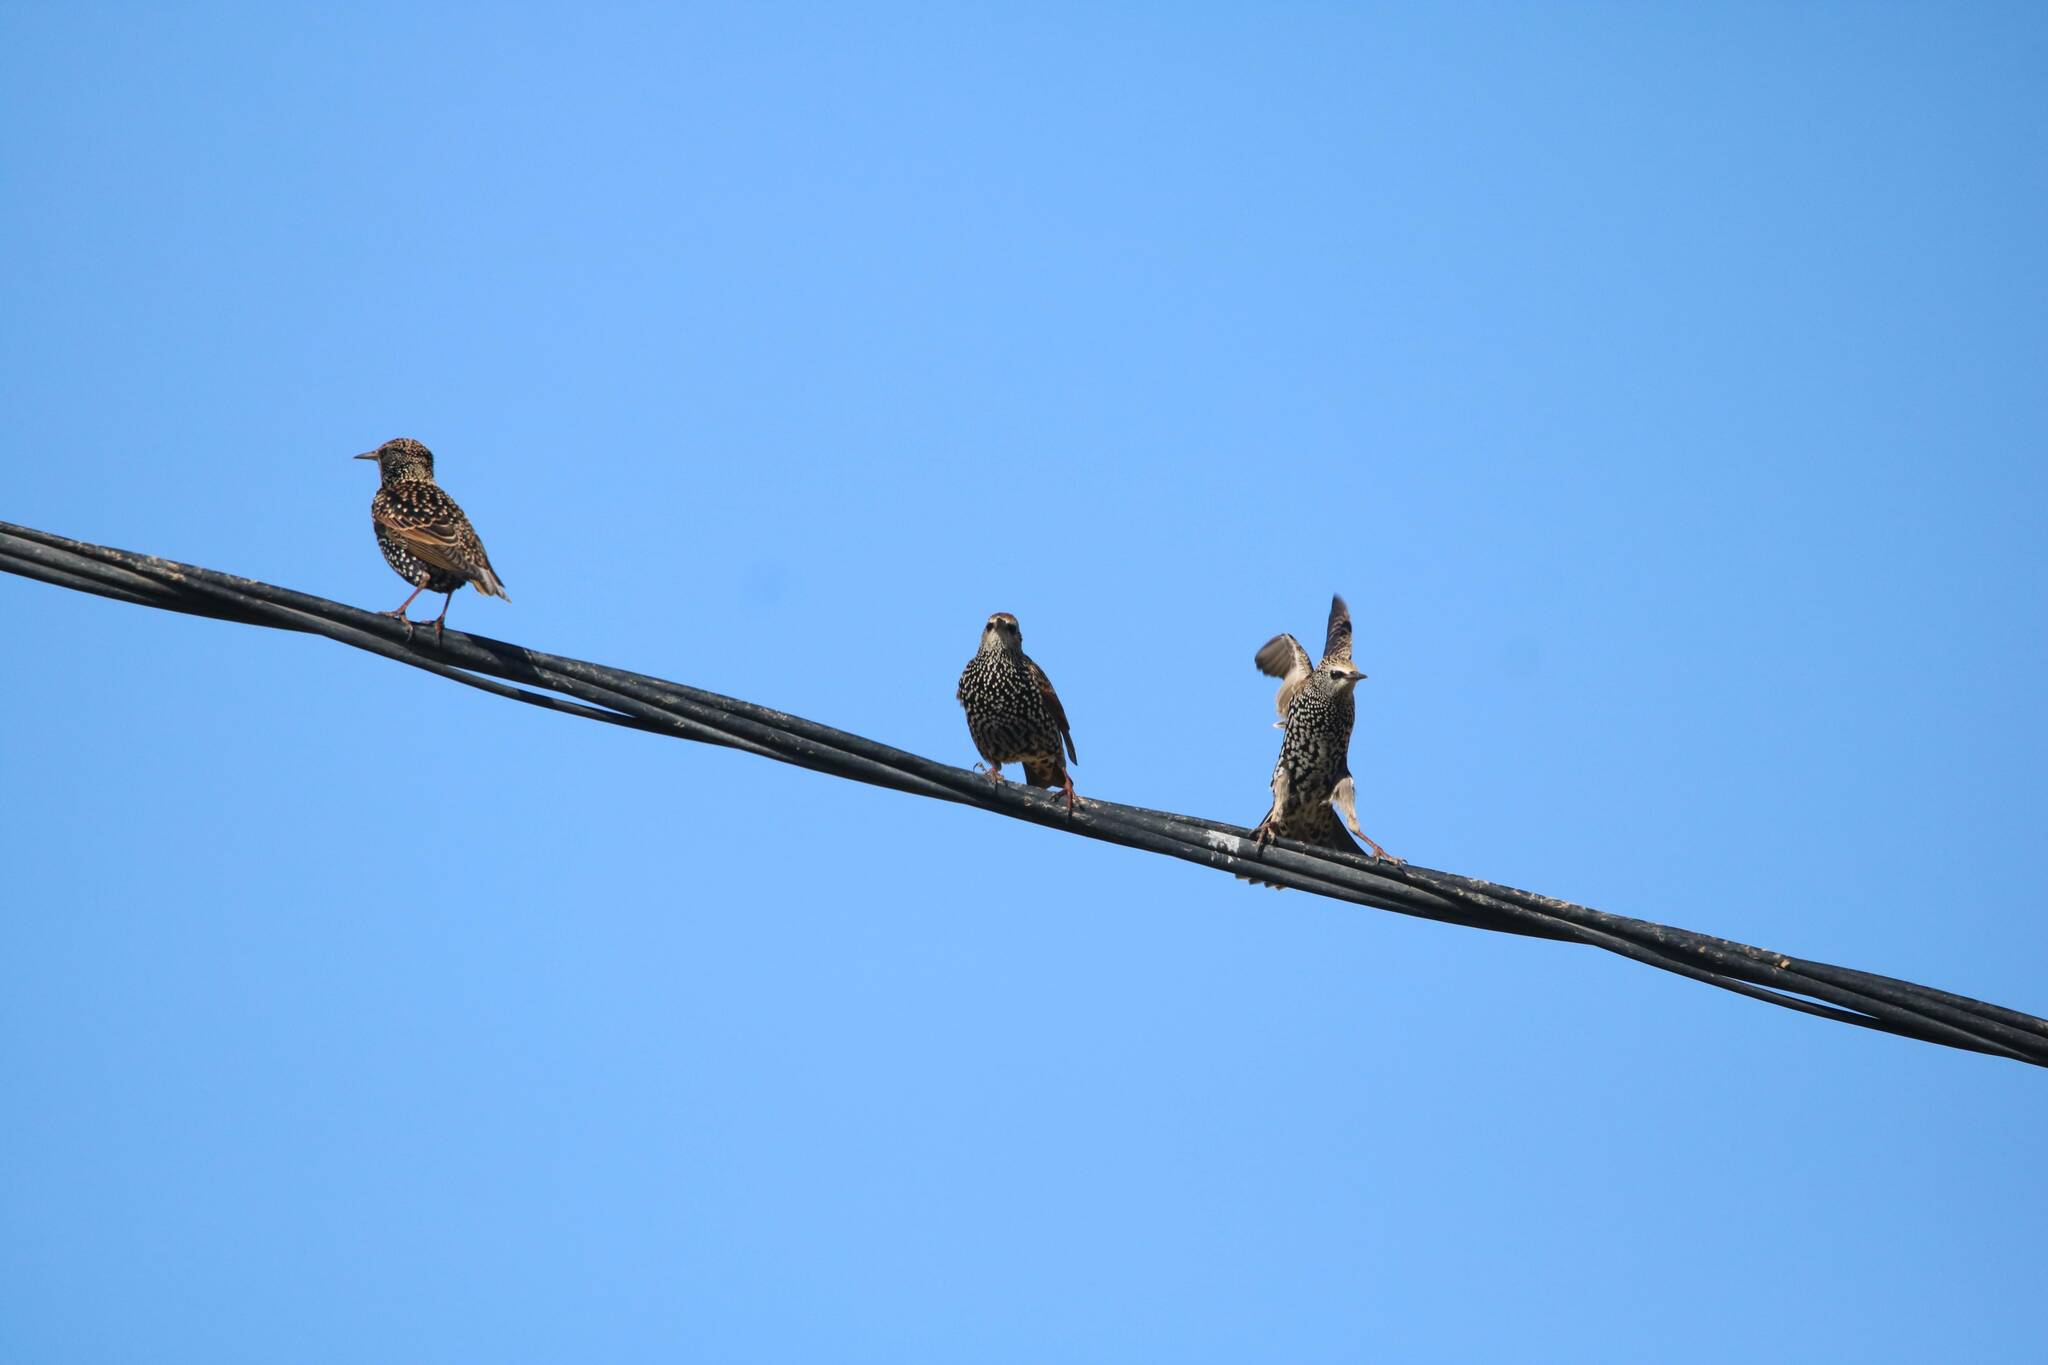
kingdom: Animalia
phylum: Chordata
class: Aves
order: Passeriformes
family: Sturnidae
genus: Sturnus
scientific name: Sturnus vulgaris
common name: Common starling
